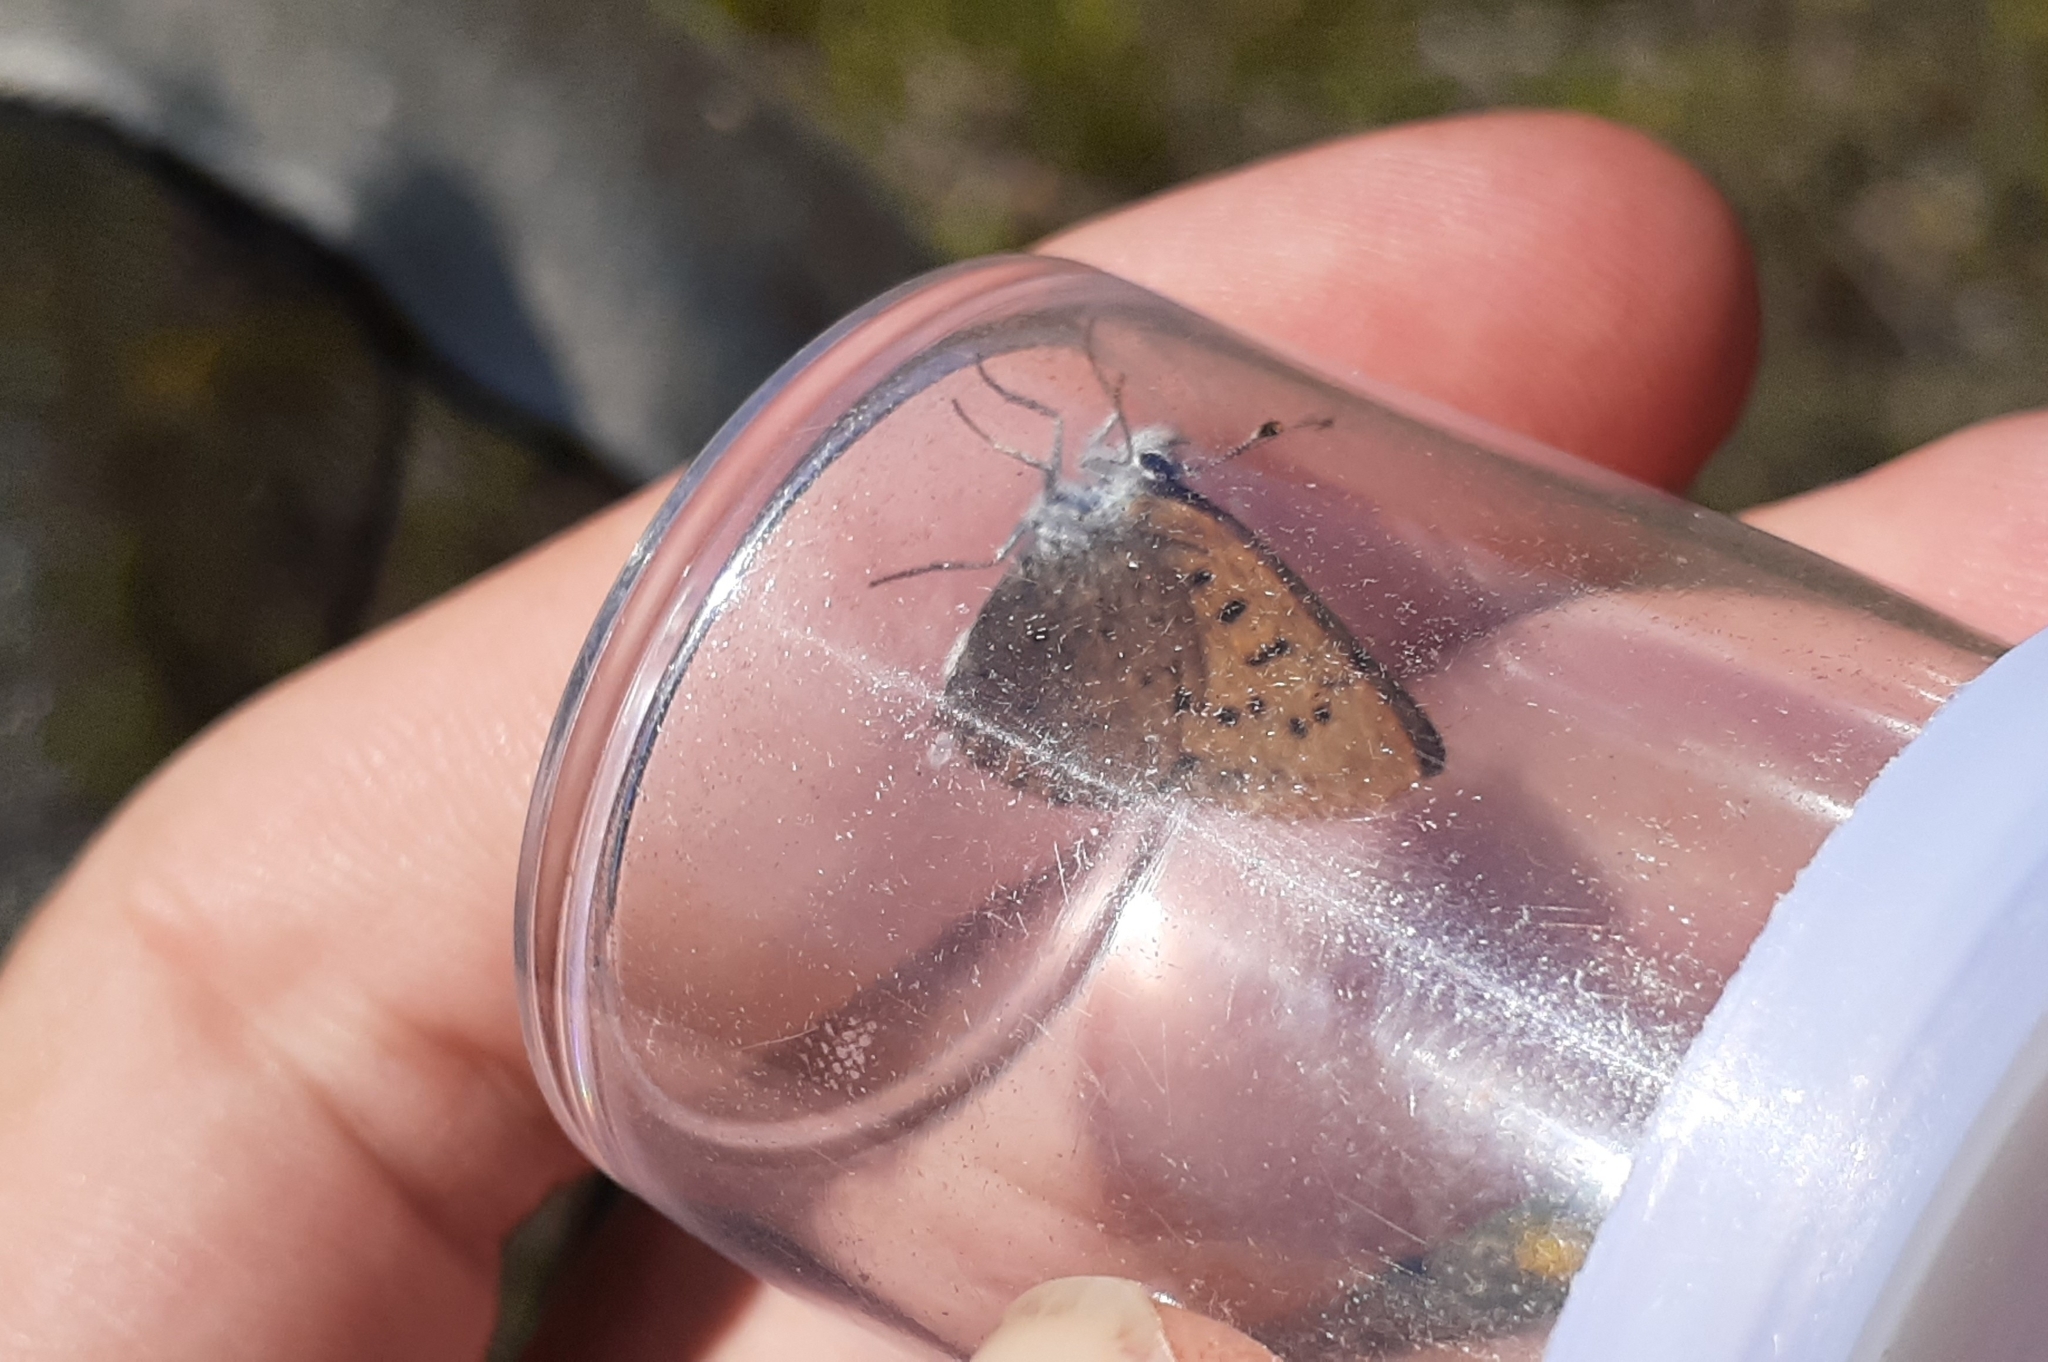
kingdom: Animalia
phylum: Arthropoda
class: Insecta
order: Lepidoptera
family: Lycaenidae
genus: Tharsalea
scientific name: Tharsalea dorcas
